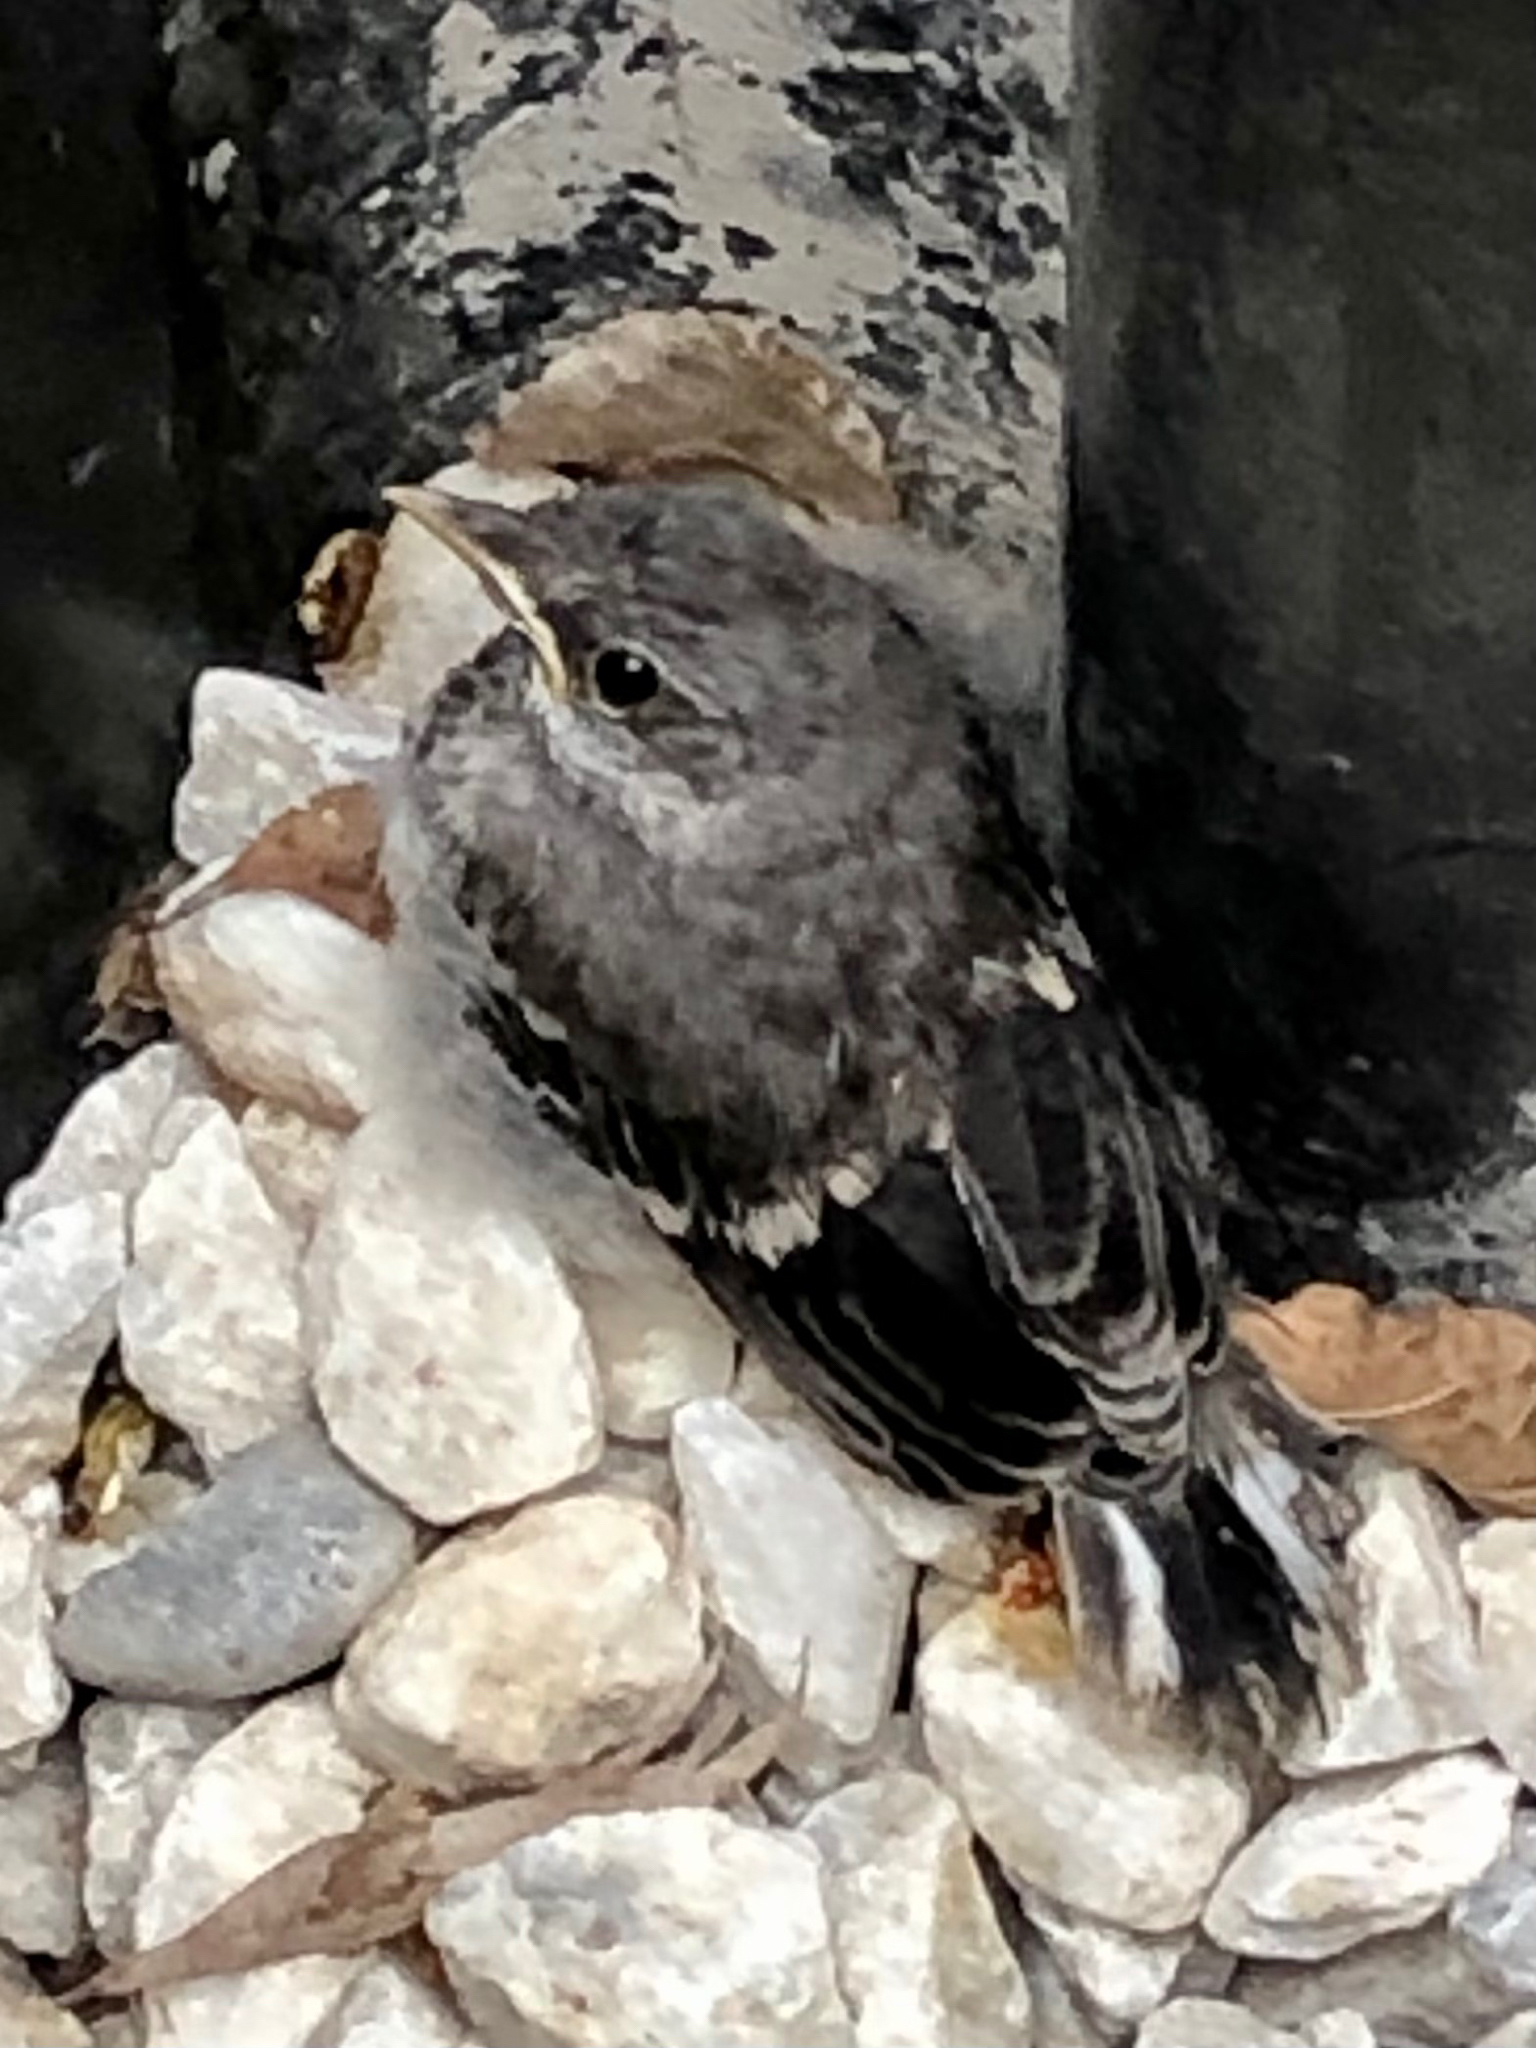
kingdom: Animalia
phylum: Chordata
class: Aves
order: Passeriformes
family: Mimidae
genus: Mimus
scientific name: Mimus polyglottos
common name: Northern mockingbird
